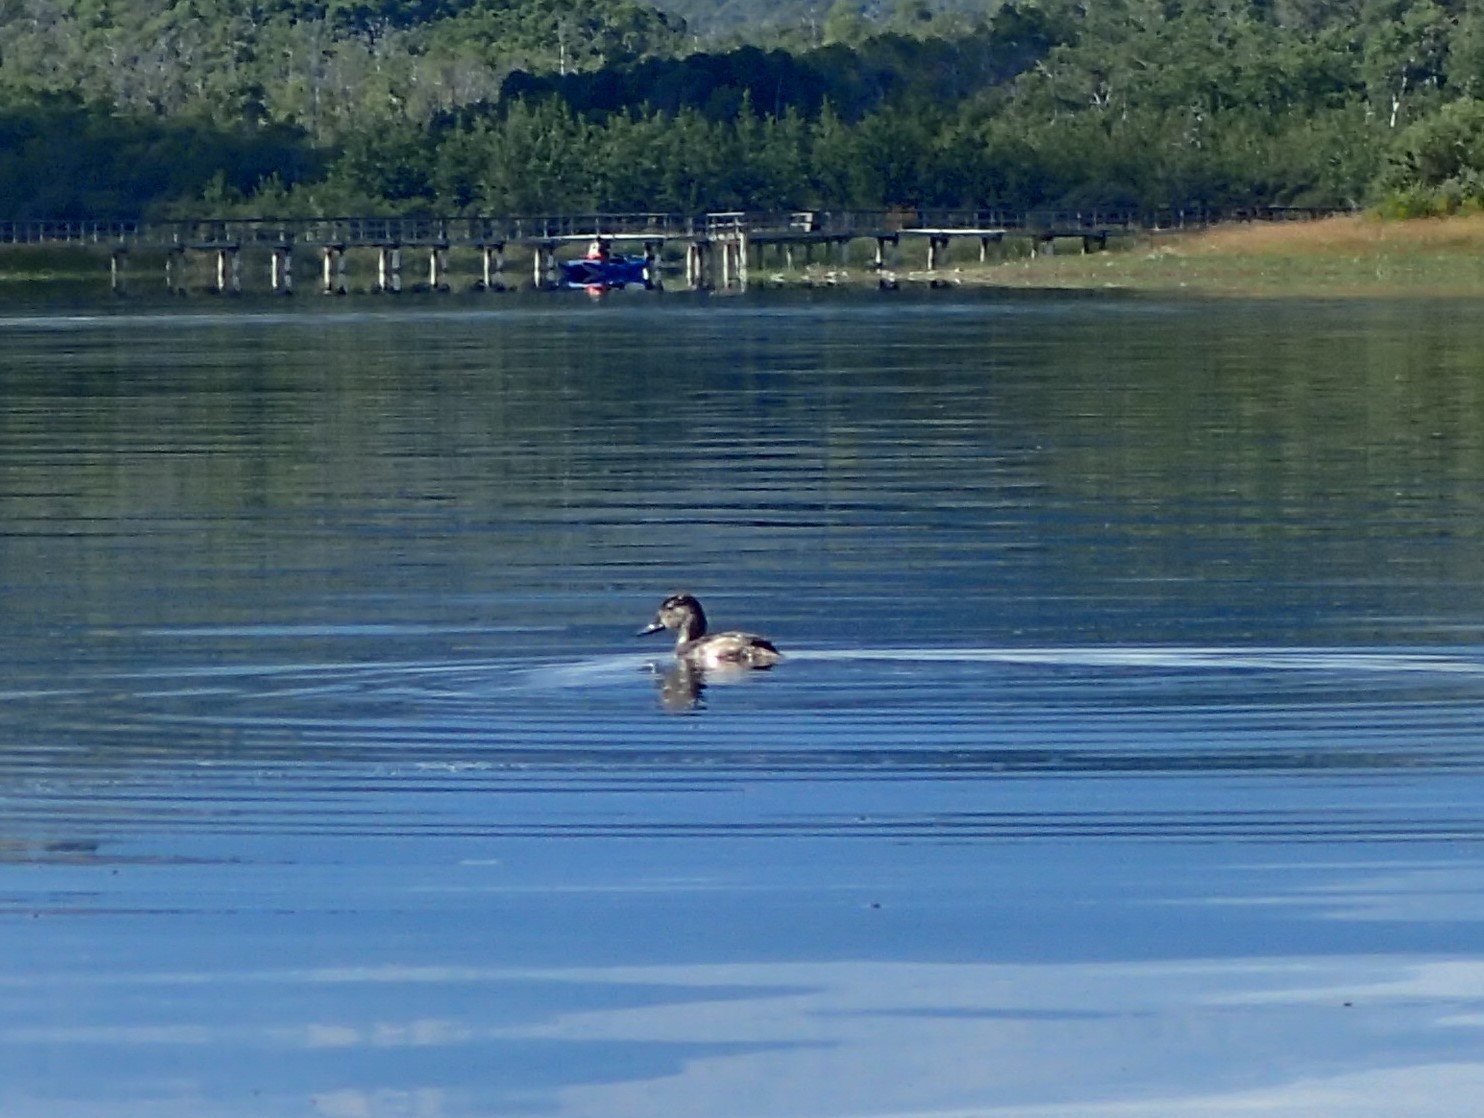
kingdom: Animalia
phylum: Chordata
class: Aves
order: Anseriformes
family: Anatidae
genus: Aythya
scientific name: Aythya americana
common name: Redhead
